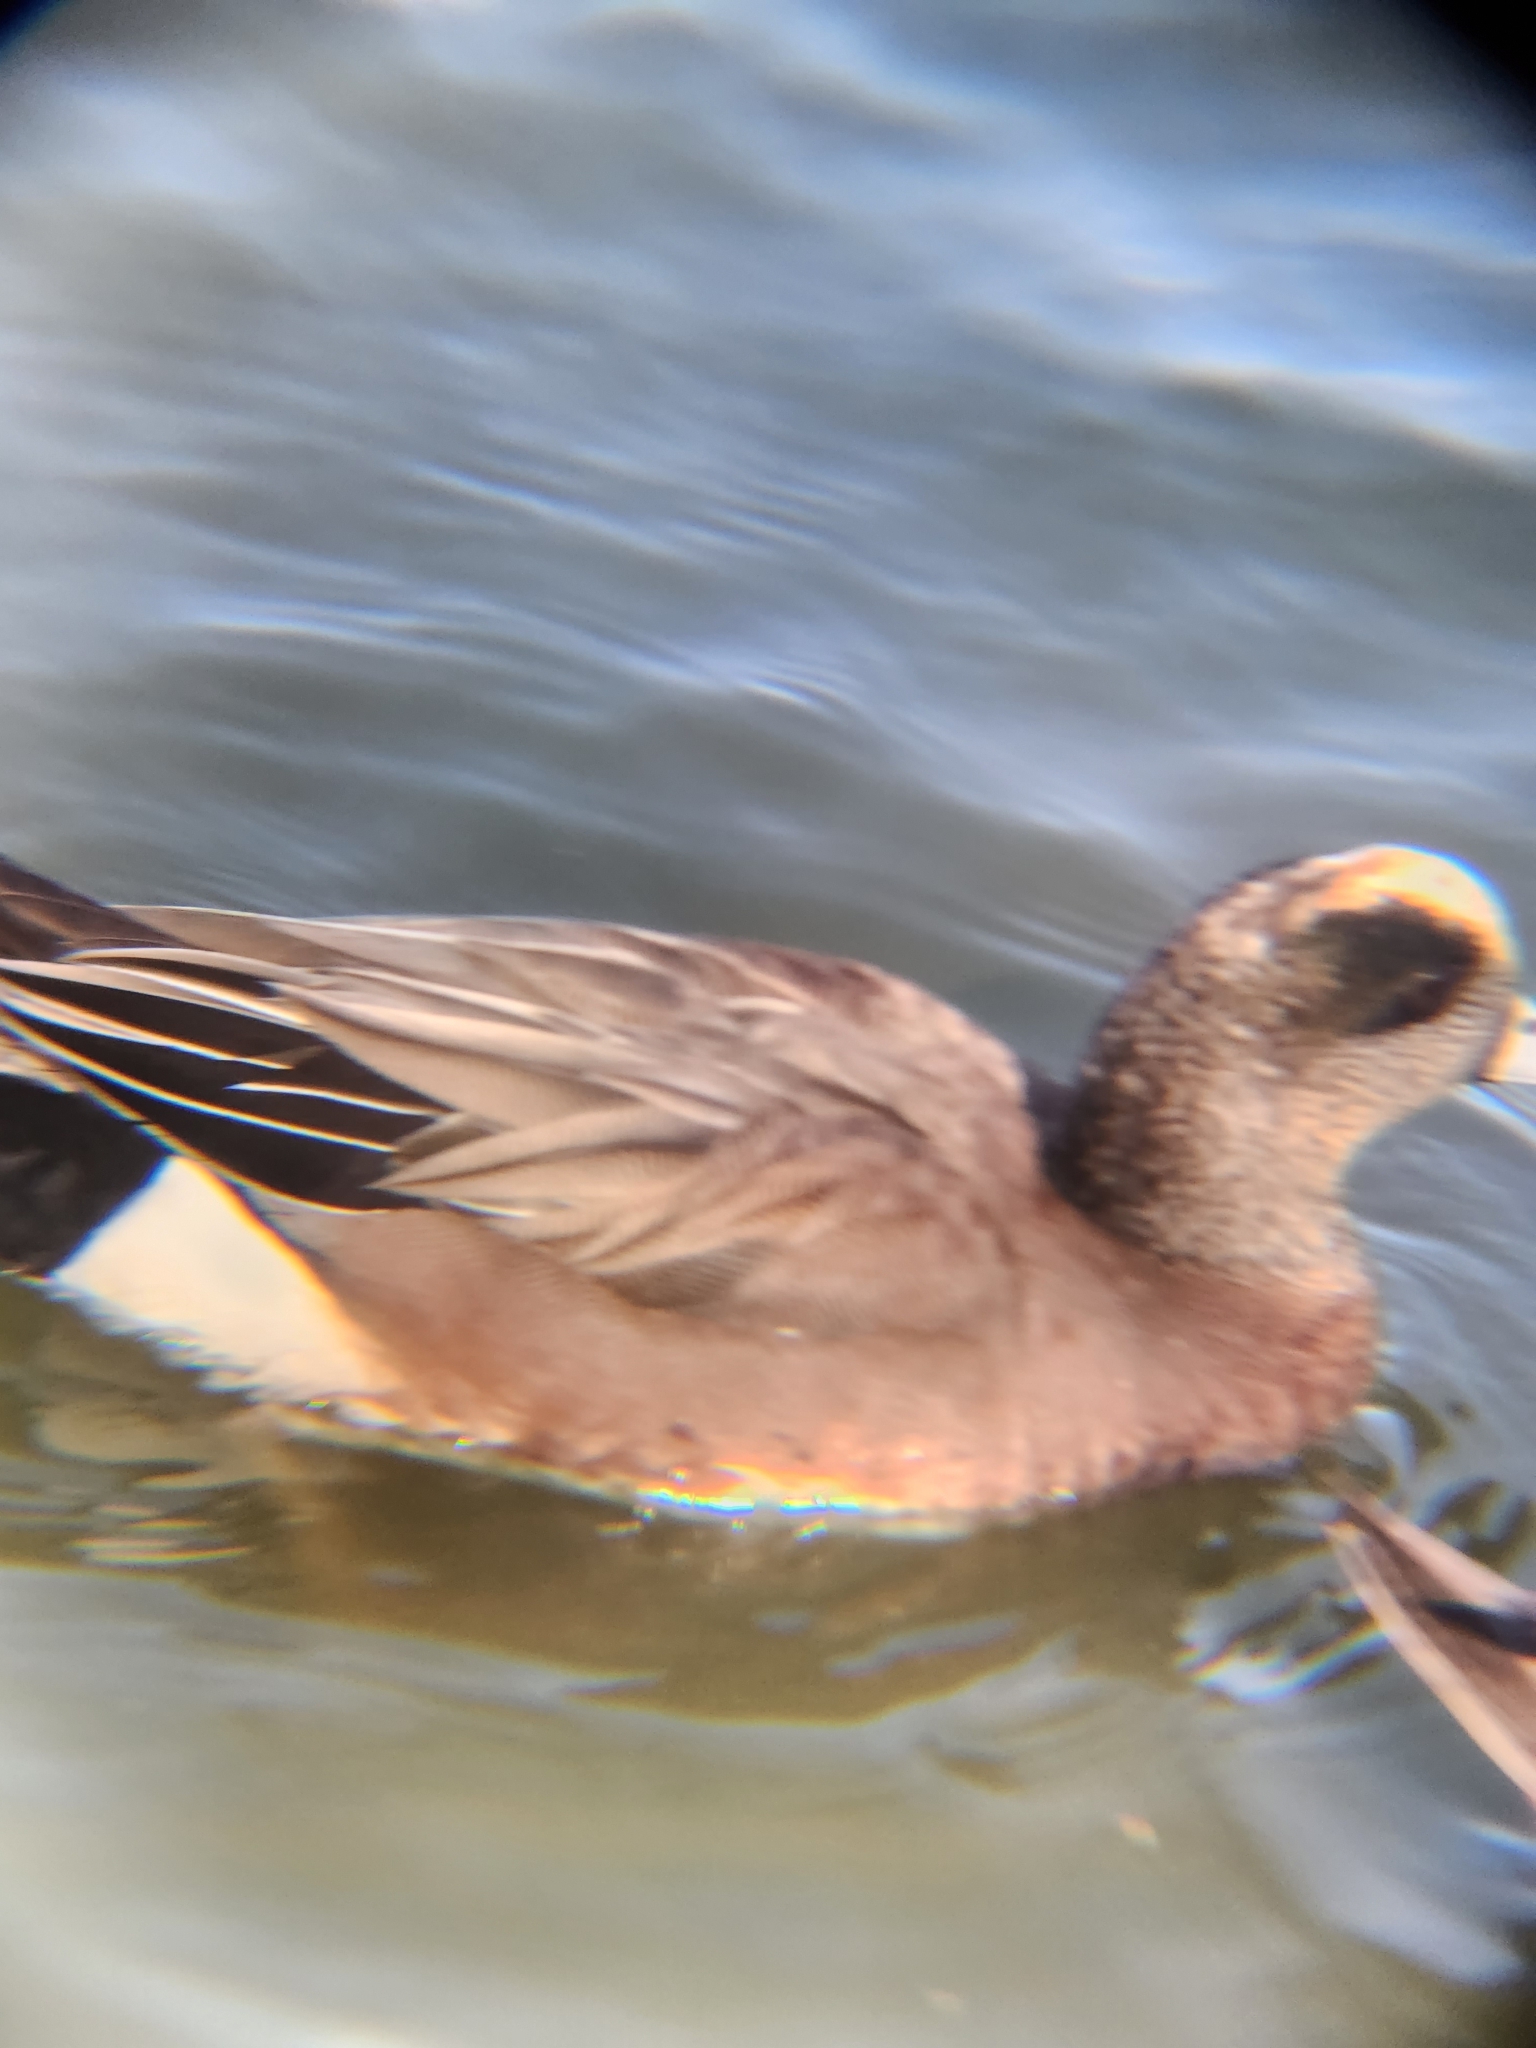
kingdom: Animalia
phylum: Chordata
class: Aves
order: Anseriformes
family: Anatidae
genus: Mareca
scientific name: Mareca americana
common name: American wigeon
